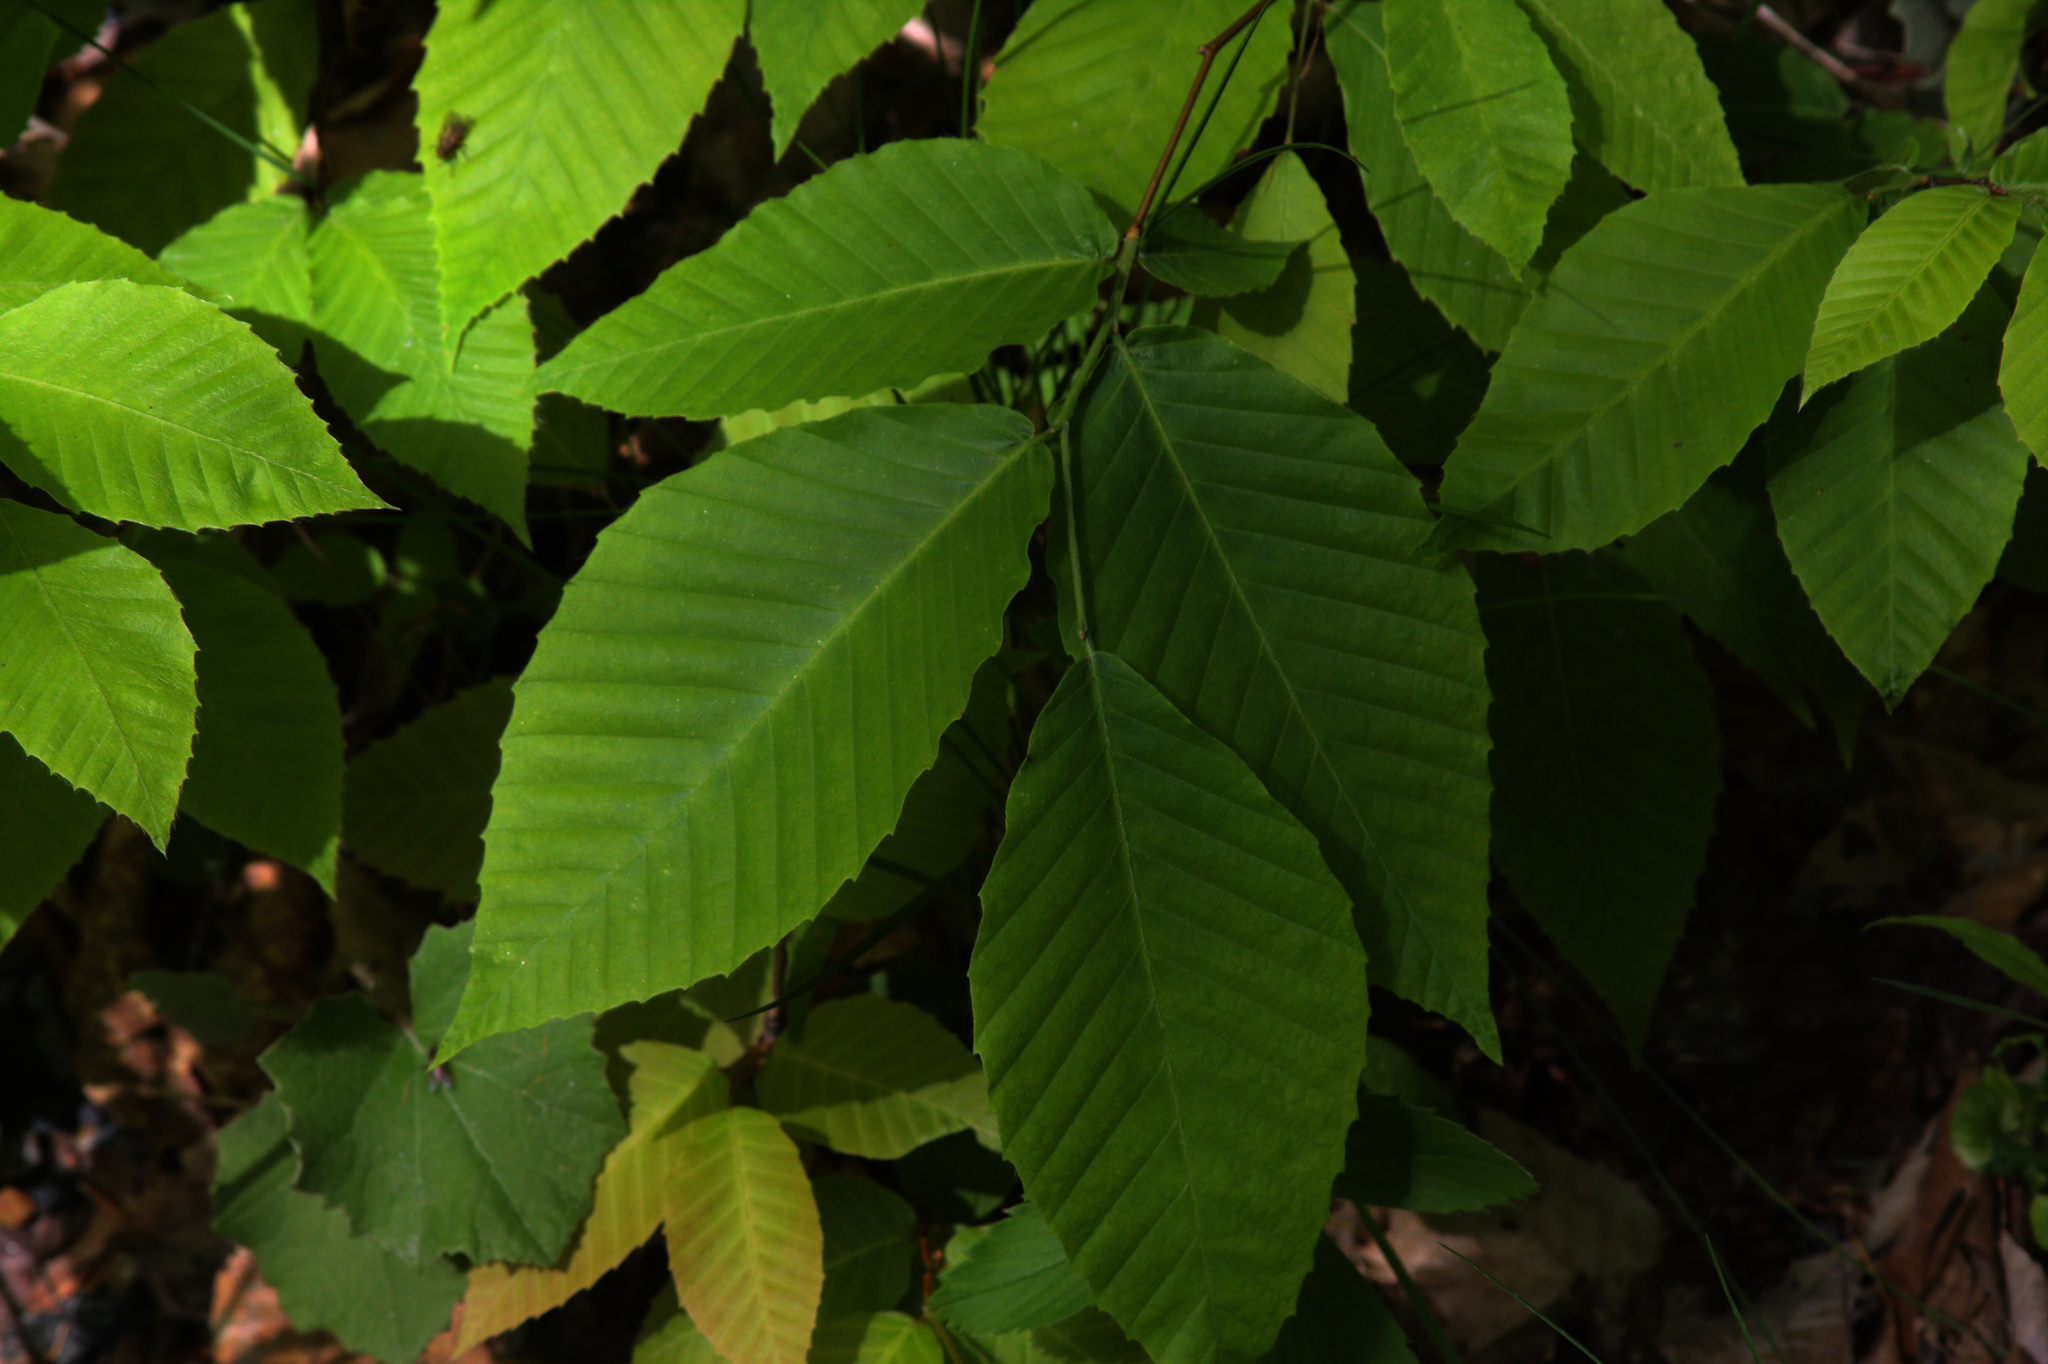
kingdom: Plantae
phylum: Tracheophyta
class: Magnoliopsida
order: Fagales
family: Fagaceae
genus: Fagus
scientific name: Fagus grandifolia
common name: American beech
